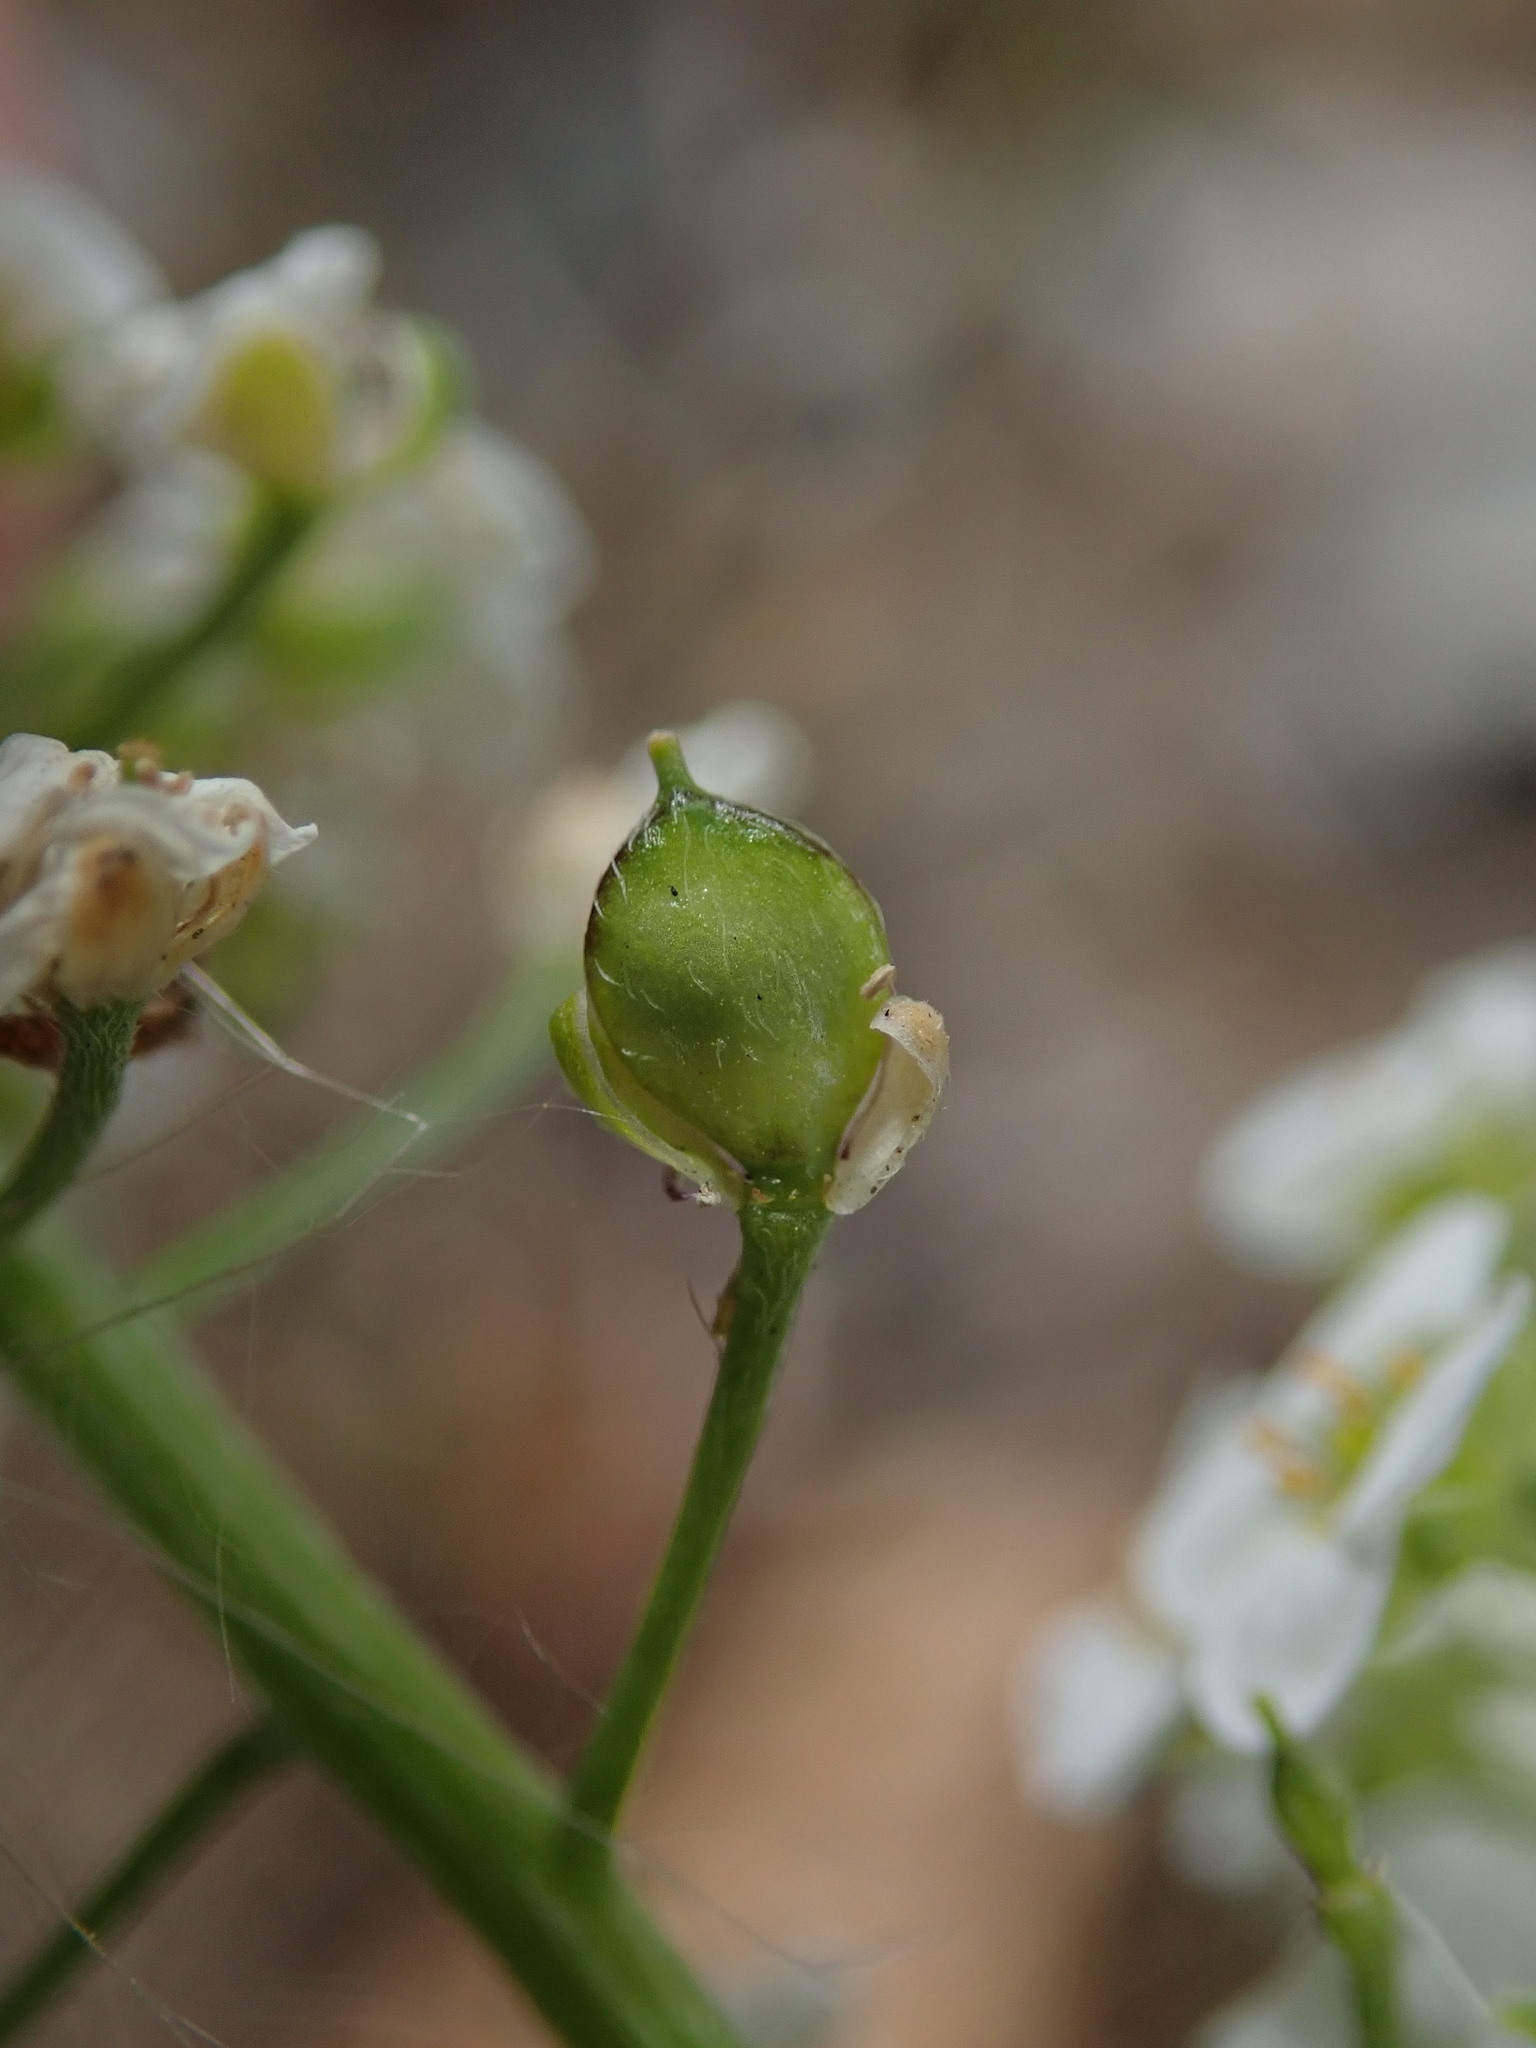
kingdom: Plantae
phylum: Tracheophyta
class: Magnoliopsida
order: Brassicales
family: Brassicaceae
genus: Lobularia
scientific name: Lobularia maritima
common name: Sweet alison
